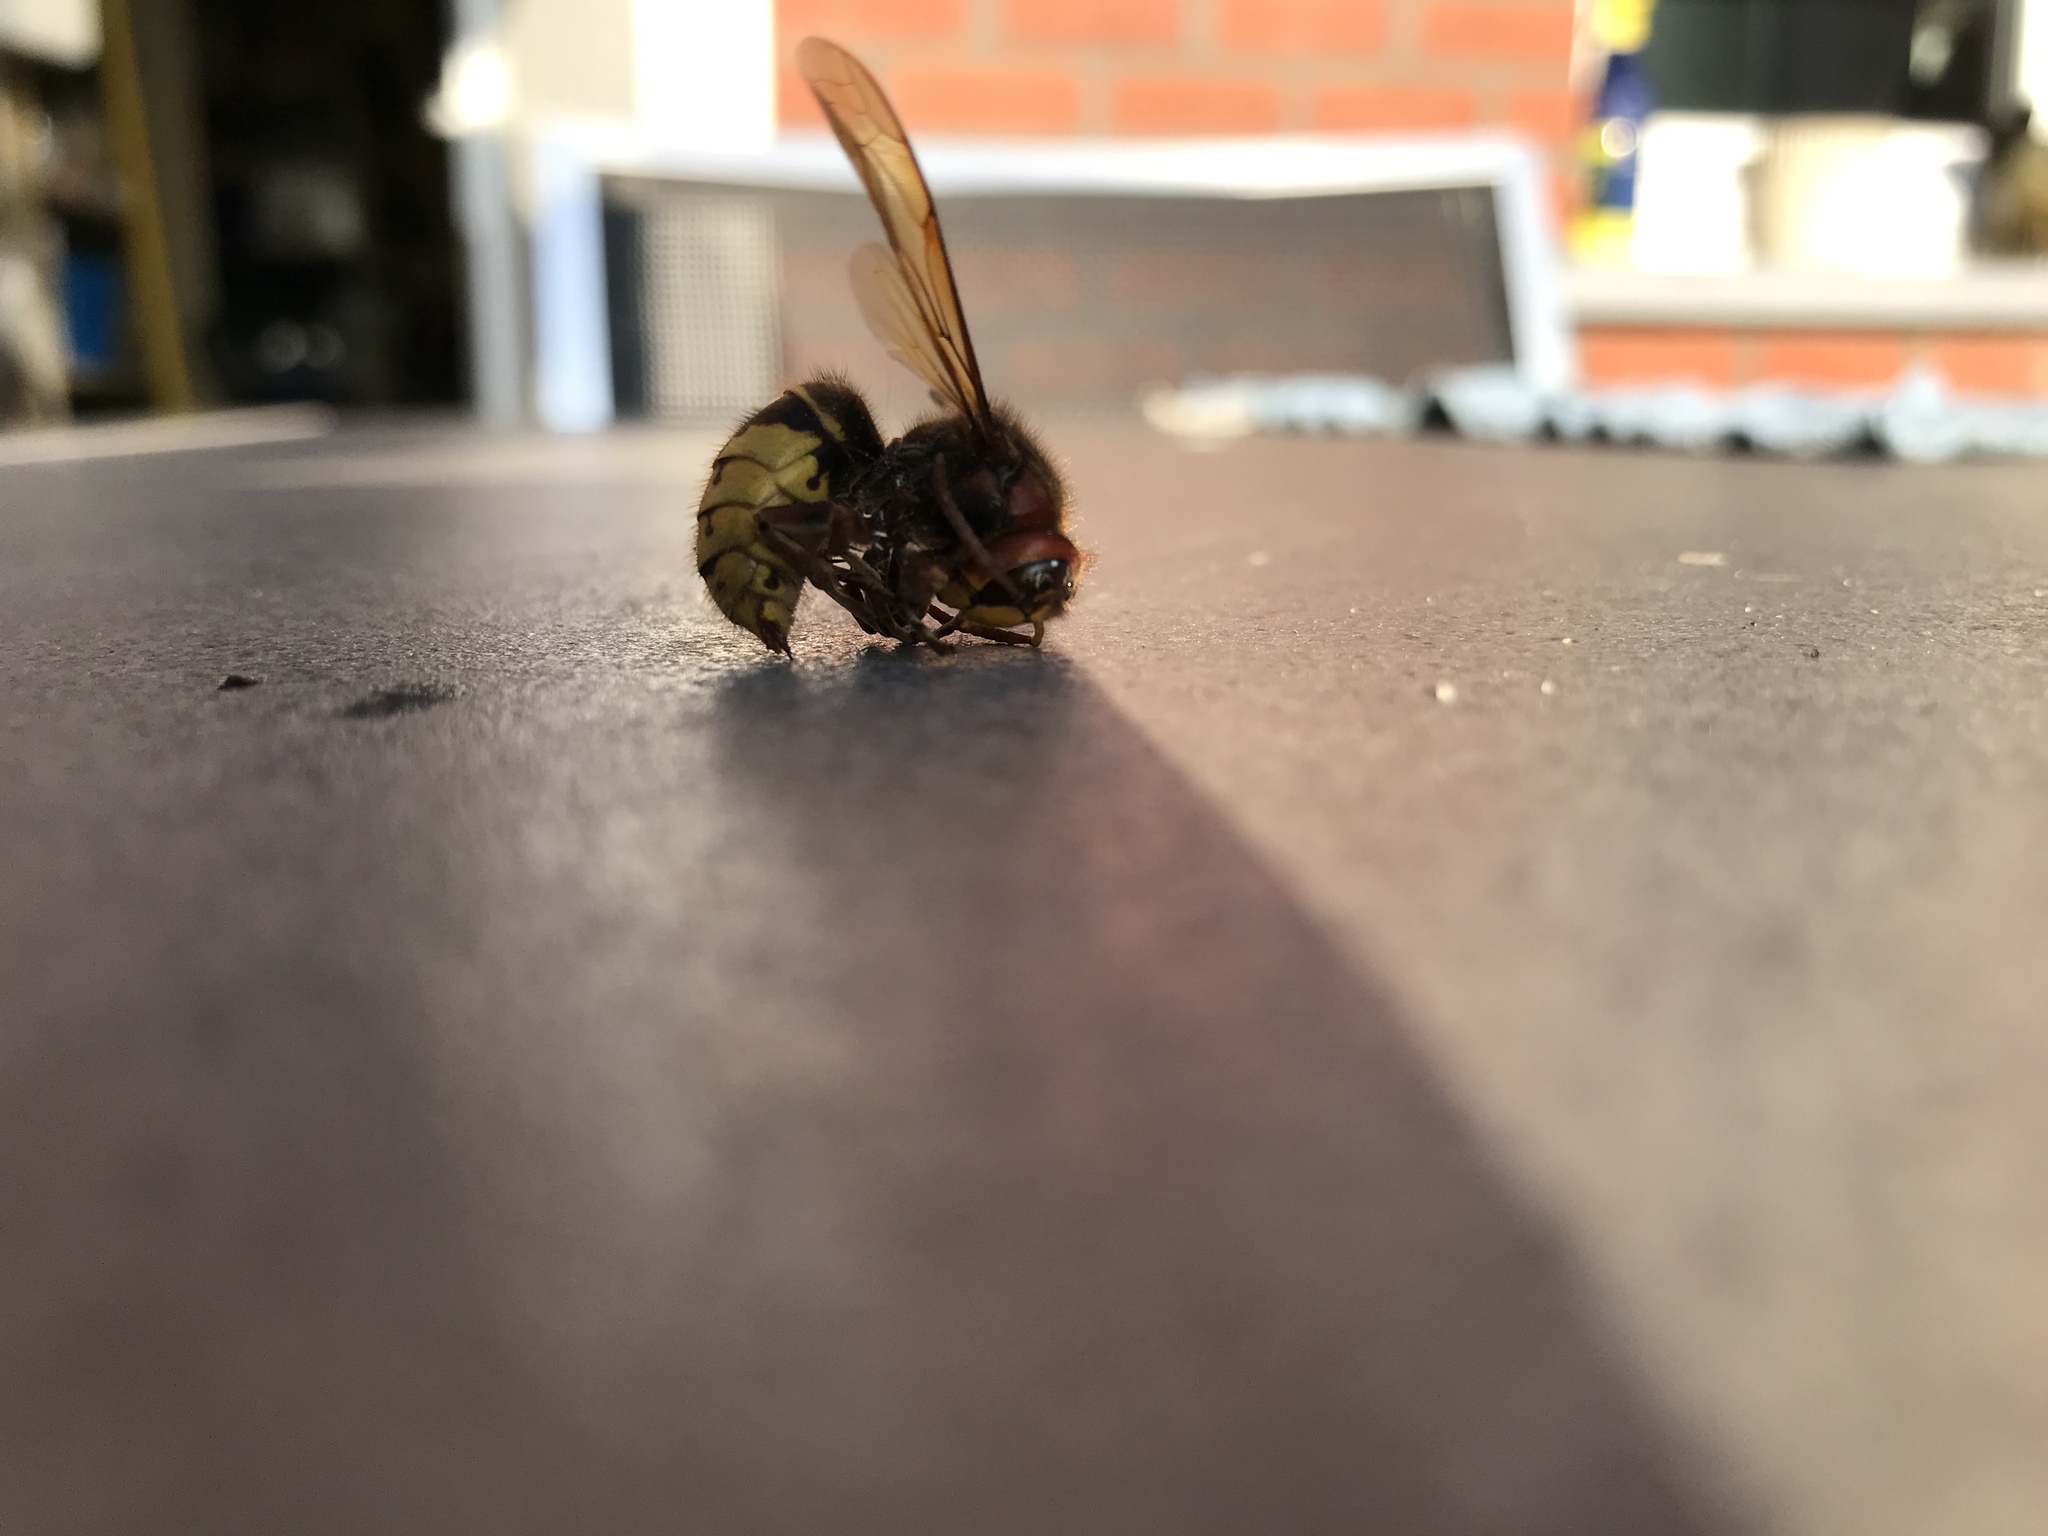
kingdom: Animalia
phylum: Arthropoda
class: Insecta
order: Hymenoptera
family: Vespidae
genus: Vespa
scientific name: Vespa crabro
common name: Hornet
